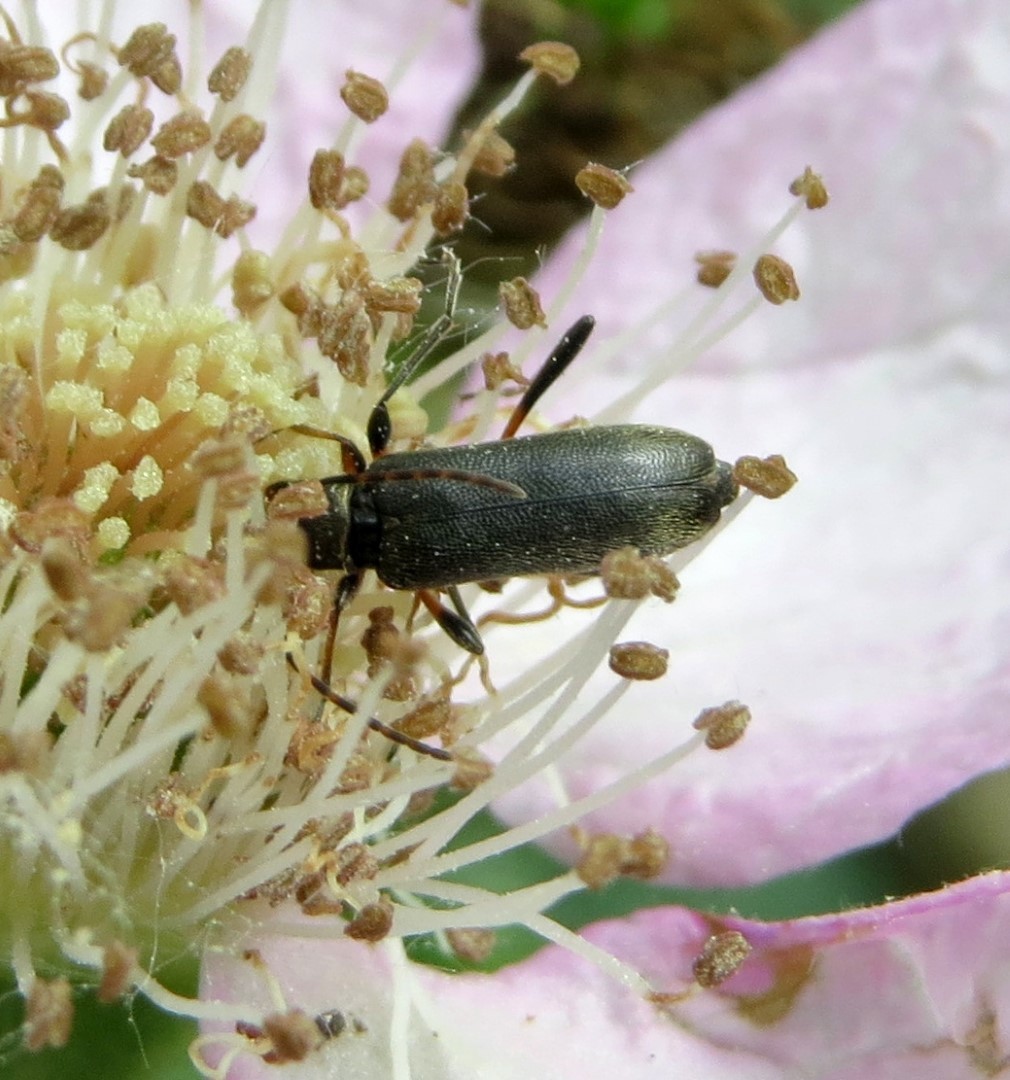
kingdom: Animalia
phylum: Arthropoda
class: Insecta
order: Coleoptera
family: Cerambycidae
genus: Grammoptera
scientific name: Grammoptera ruficornis
